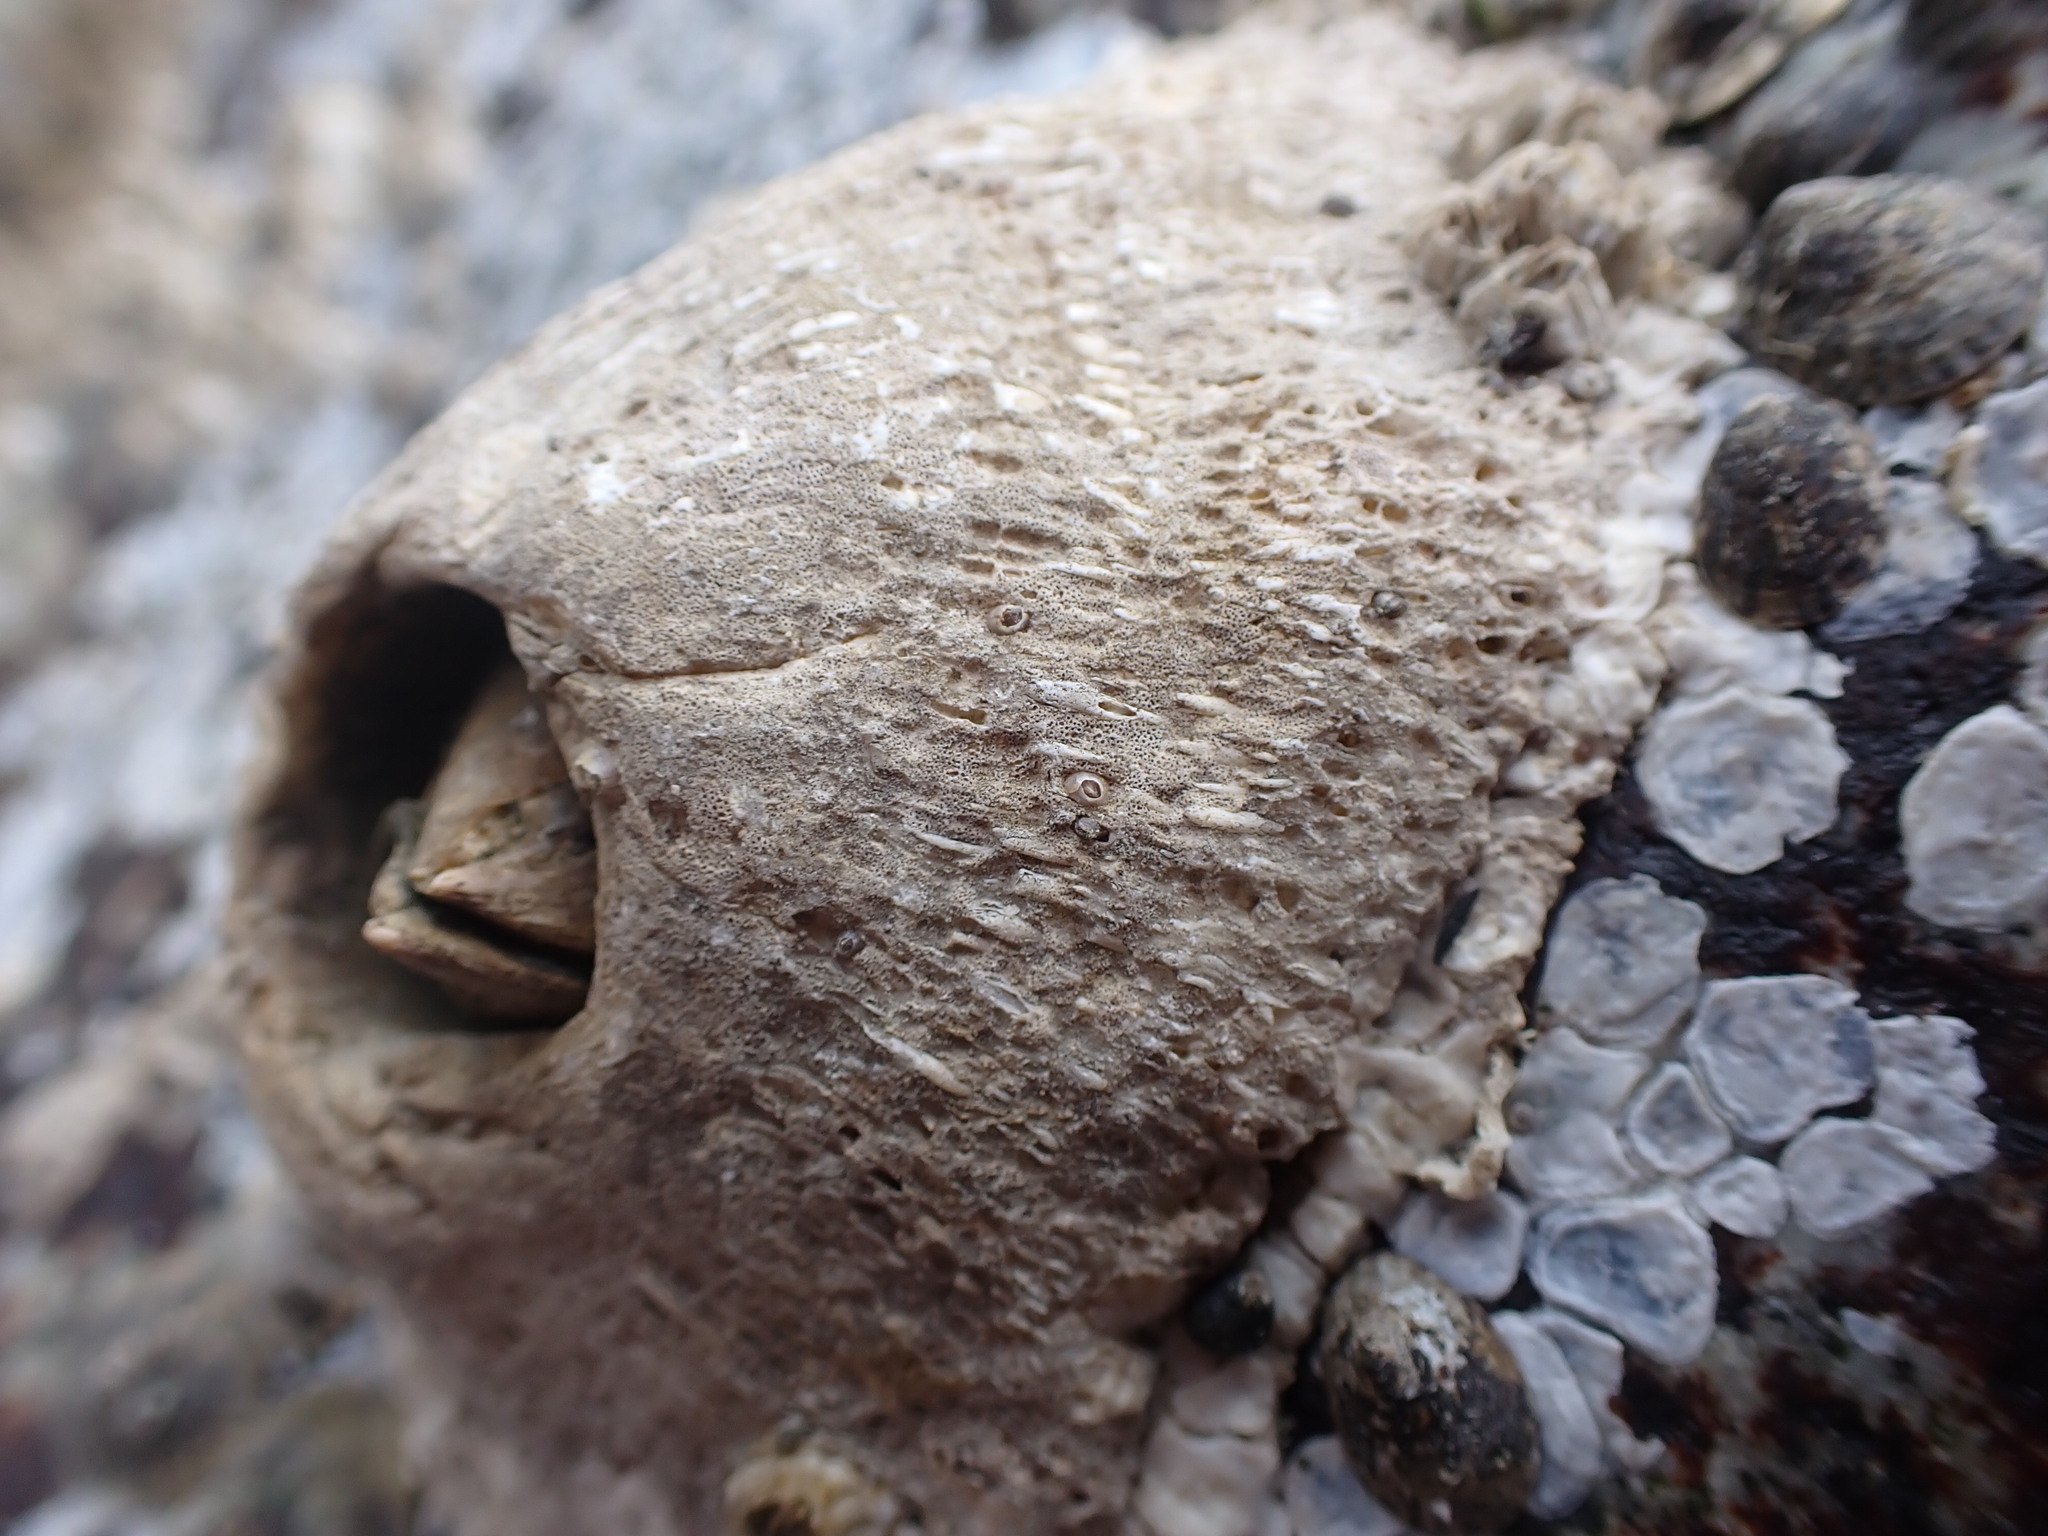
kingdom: Animalia
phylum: Arthropoda
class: Maxillopoda
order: Sessilia
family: Archaeobalanidae
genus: Semibalanus
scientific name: Semibalanus cariosus
